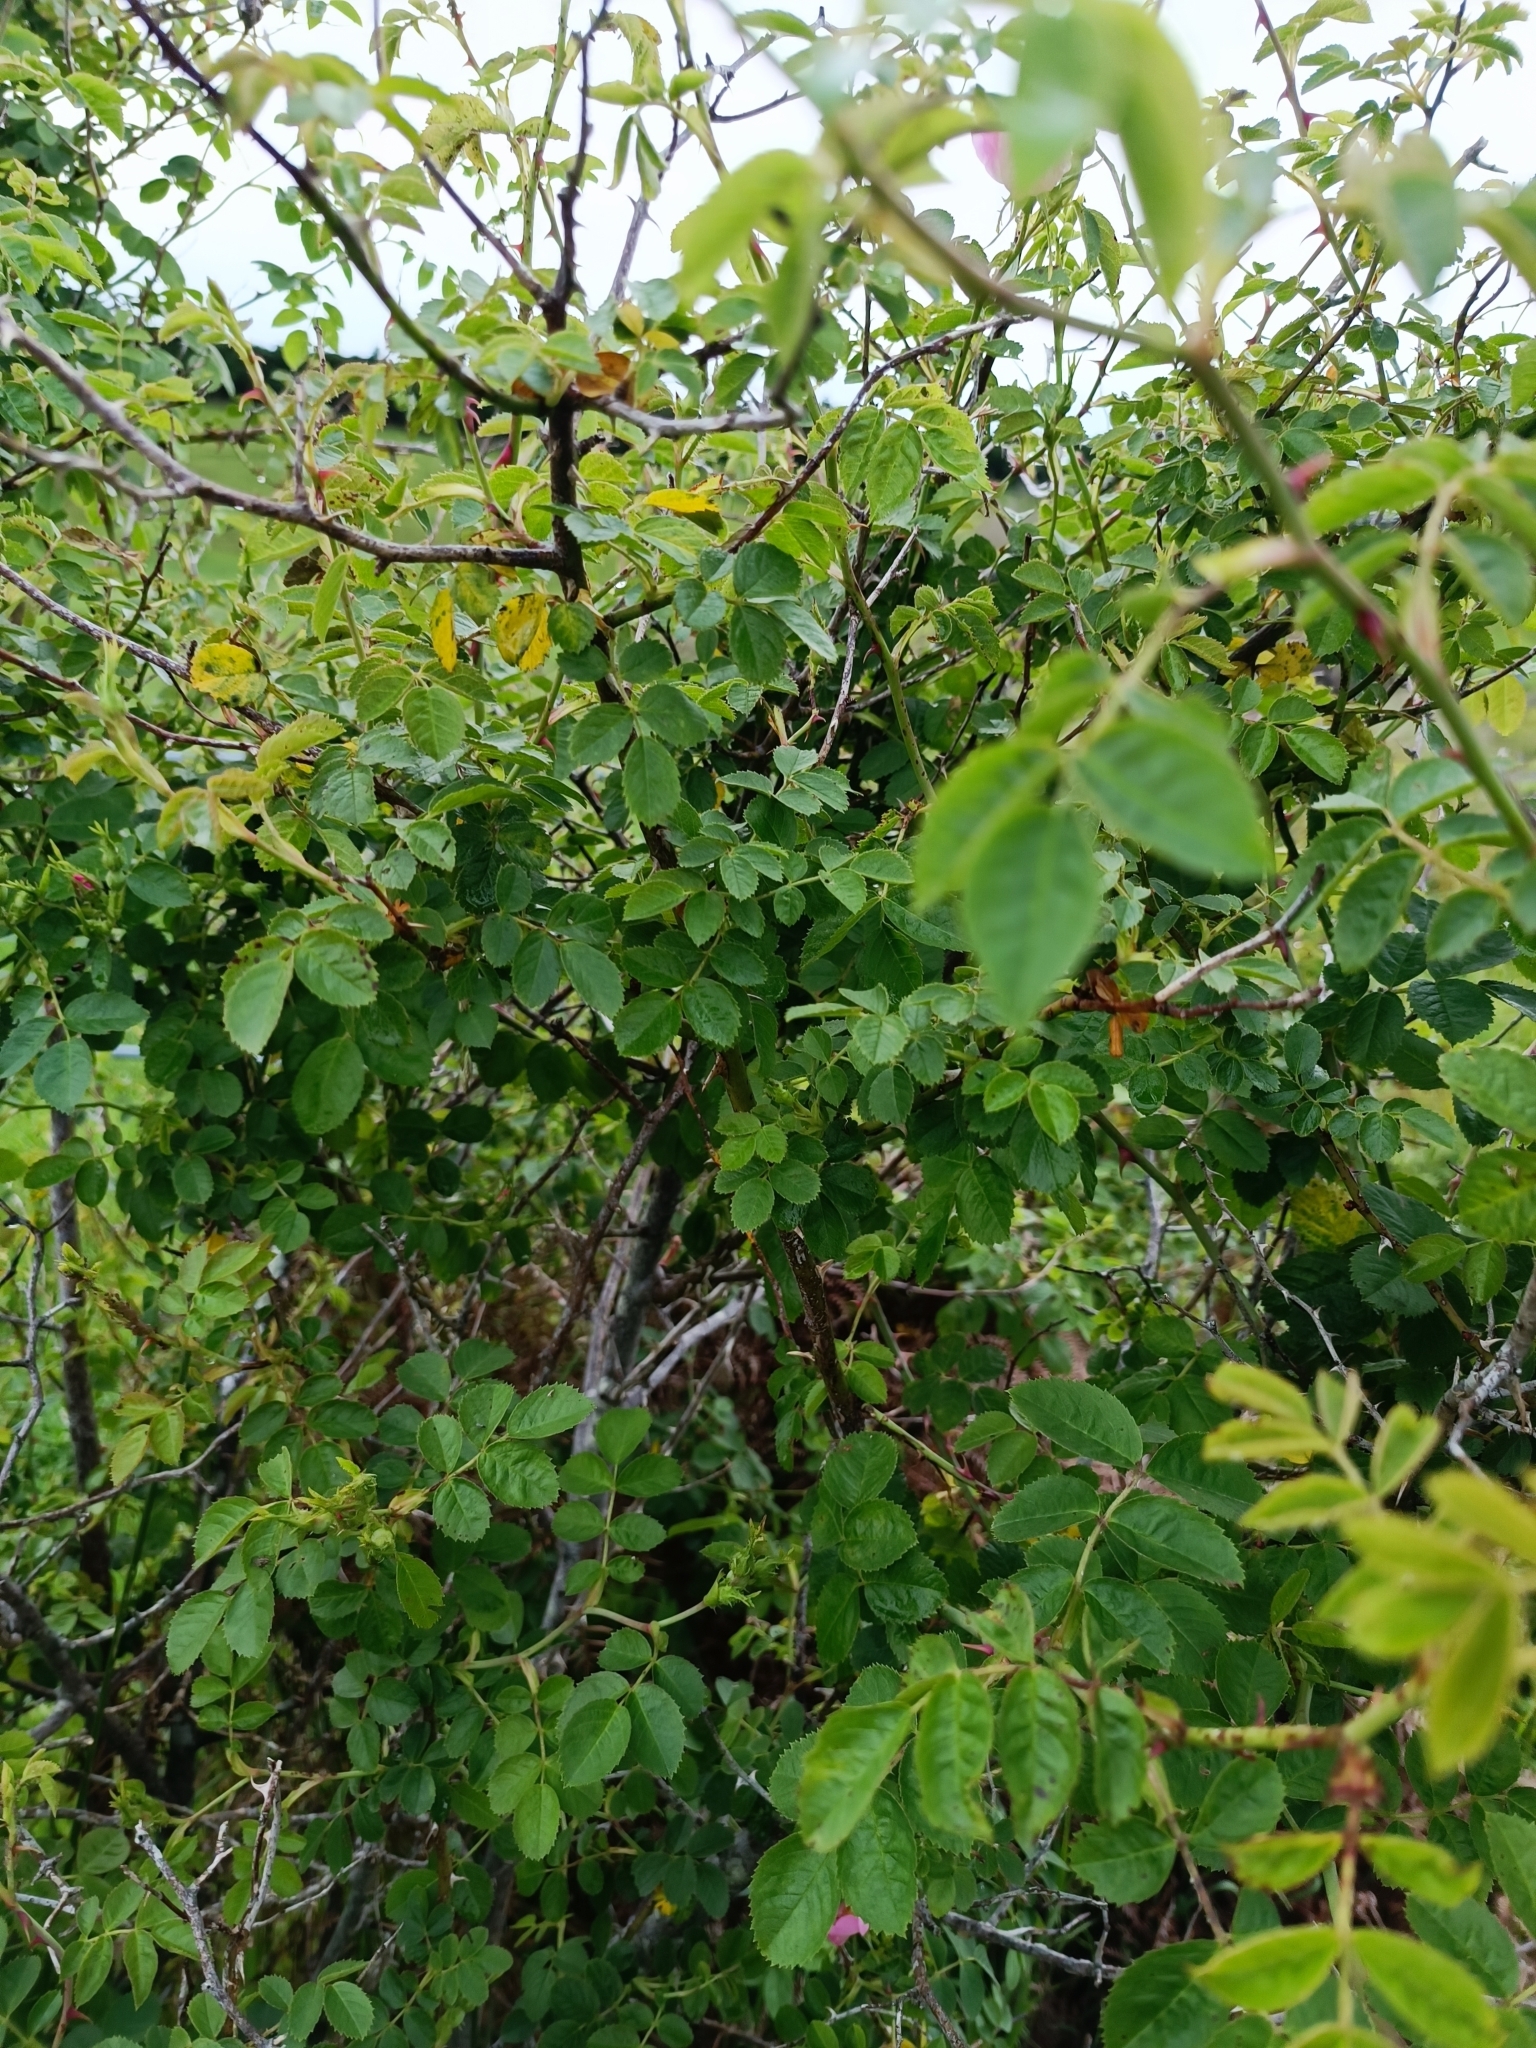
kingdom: Plantae
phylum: Tracheophyta
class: Magnoliopsida
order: Rosales
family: Rosaceae
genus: Rosa
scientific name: Rosa rubiginosa
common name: Sweet-briar
